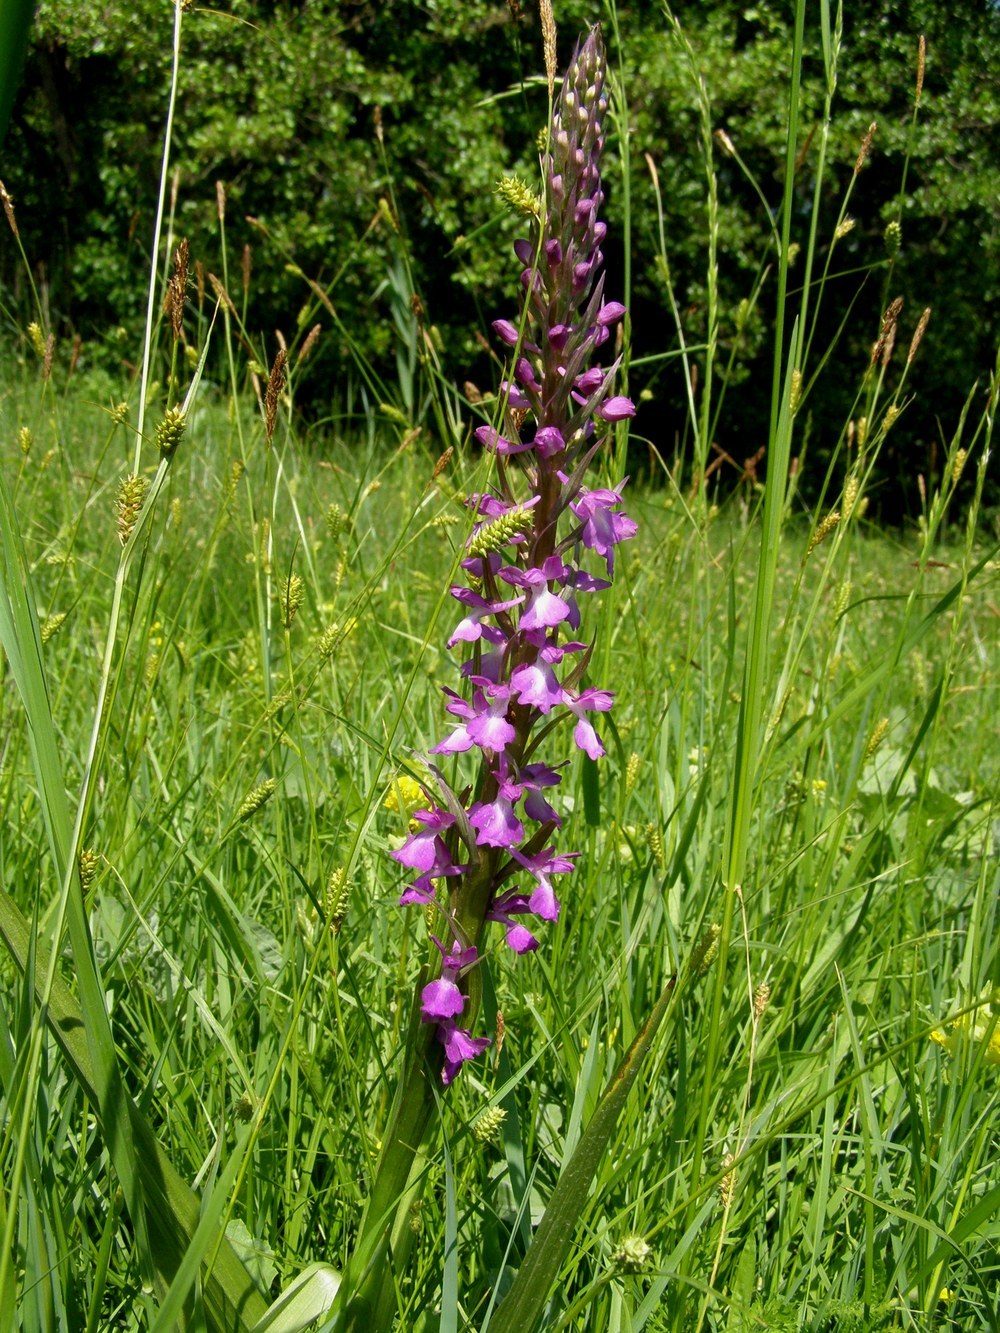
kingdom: Plantae
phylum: Tracheophyta
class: Liliopsida
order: Asparagales
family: Orchidaceae
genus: Anacamptis
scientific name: Anacamptis palustris
